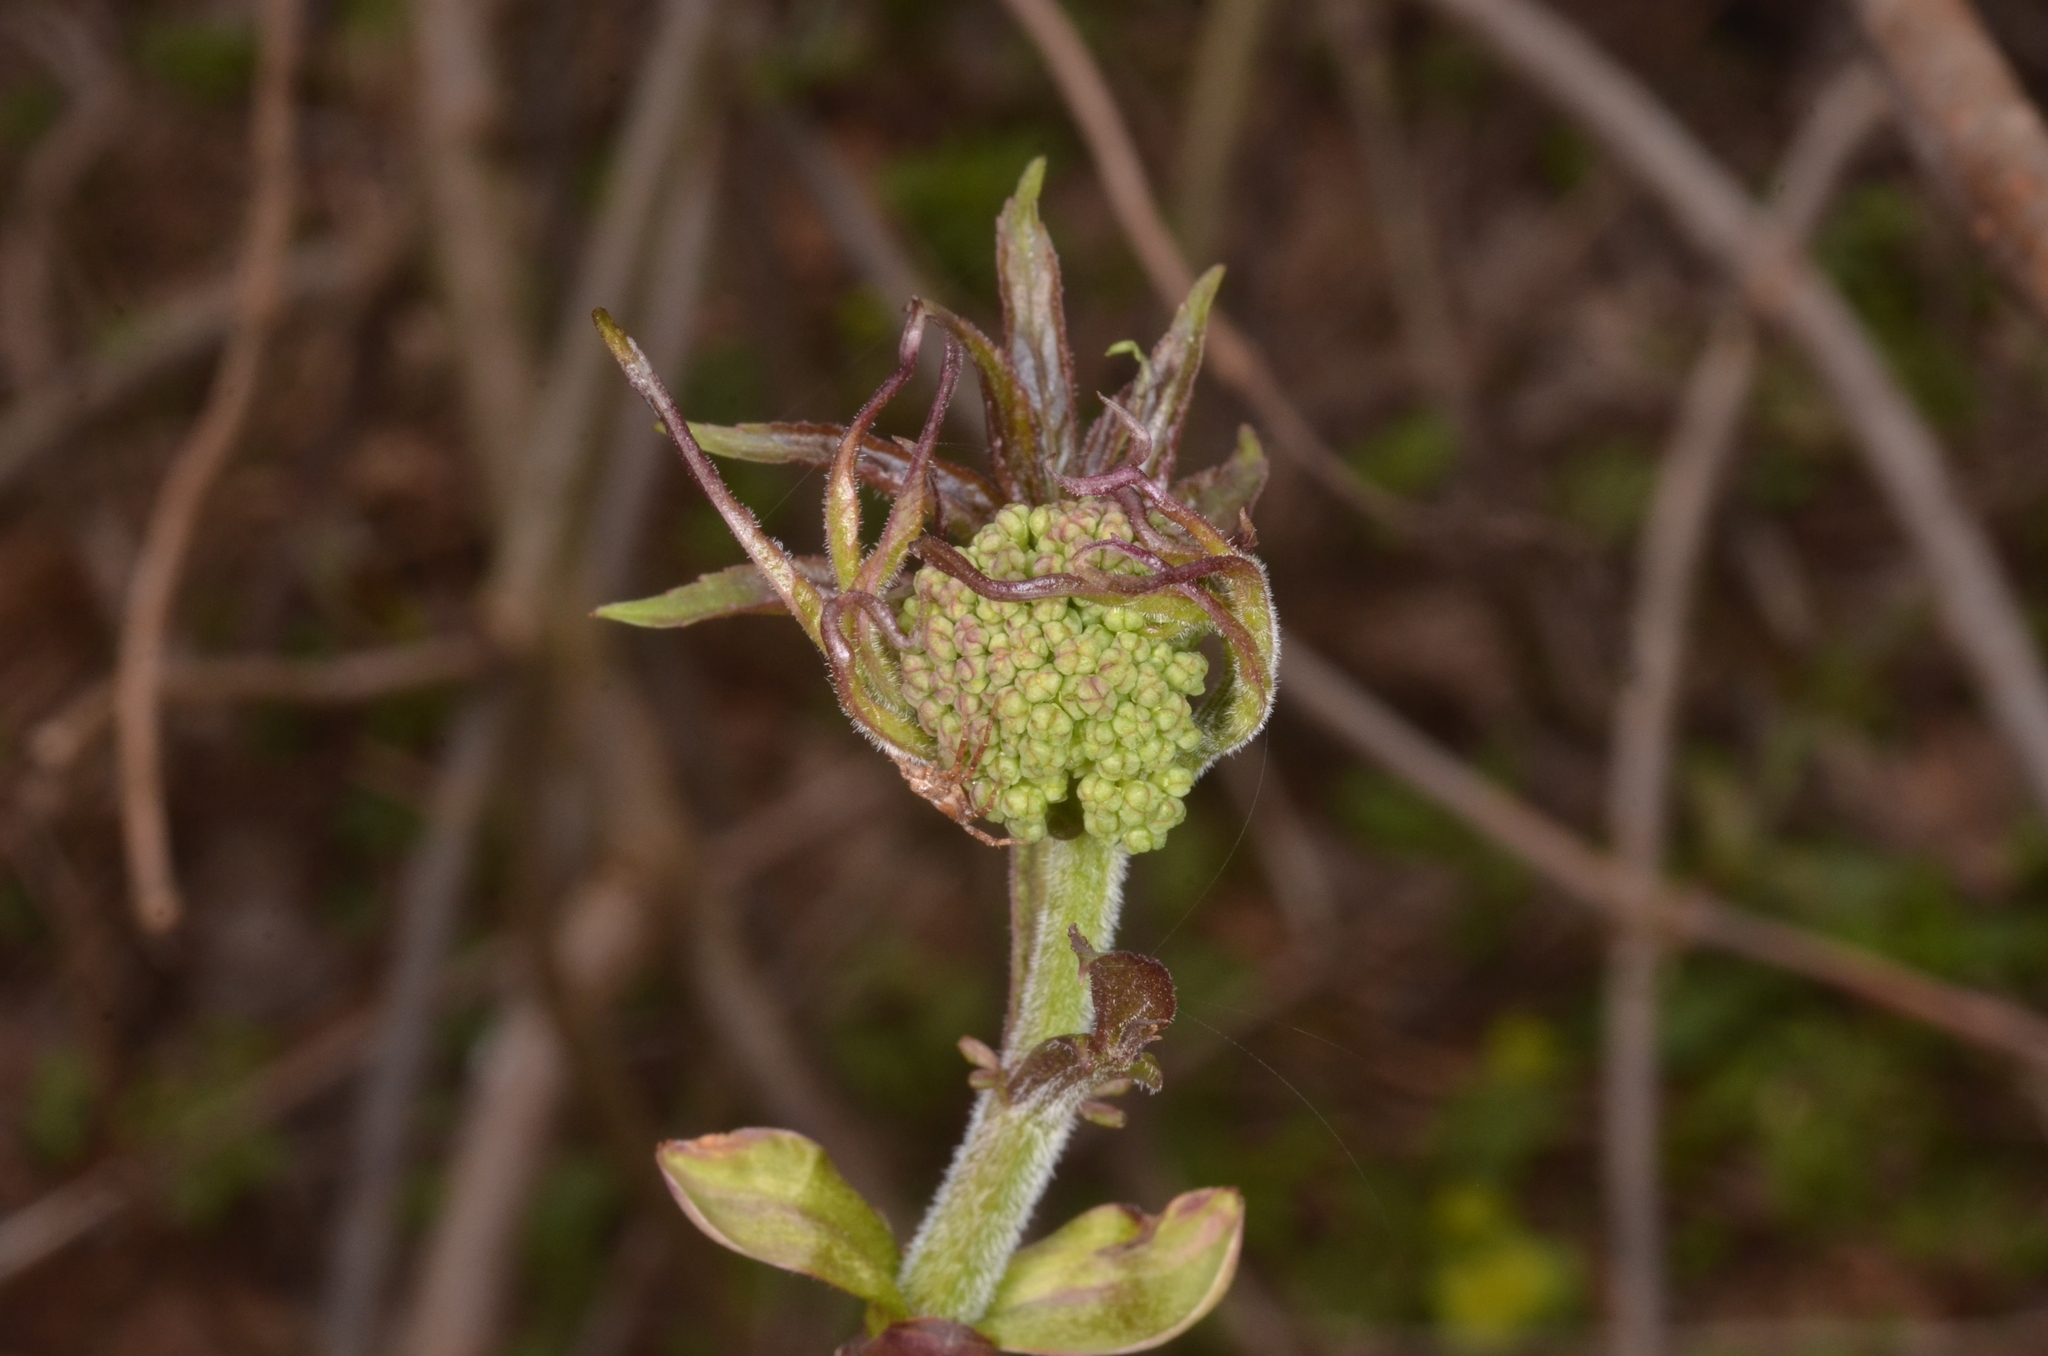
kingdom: Plantae
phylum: Tracheophyta
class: Magnoliopsida
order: Dipsacales
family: Viburnaceae
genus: Sambucus
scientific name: Sambucus racemosa
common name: Red-berried elder
